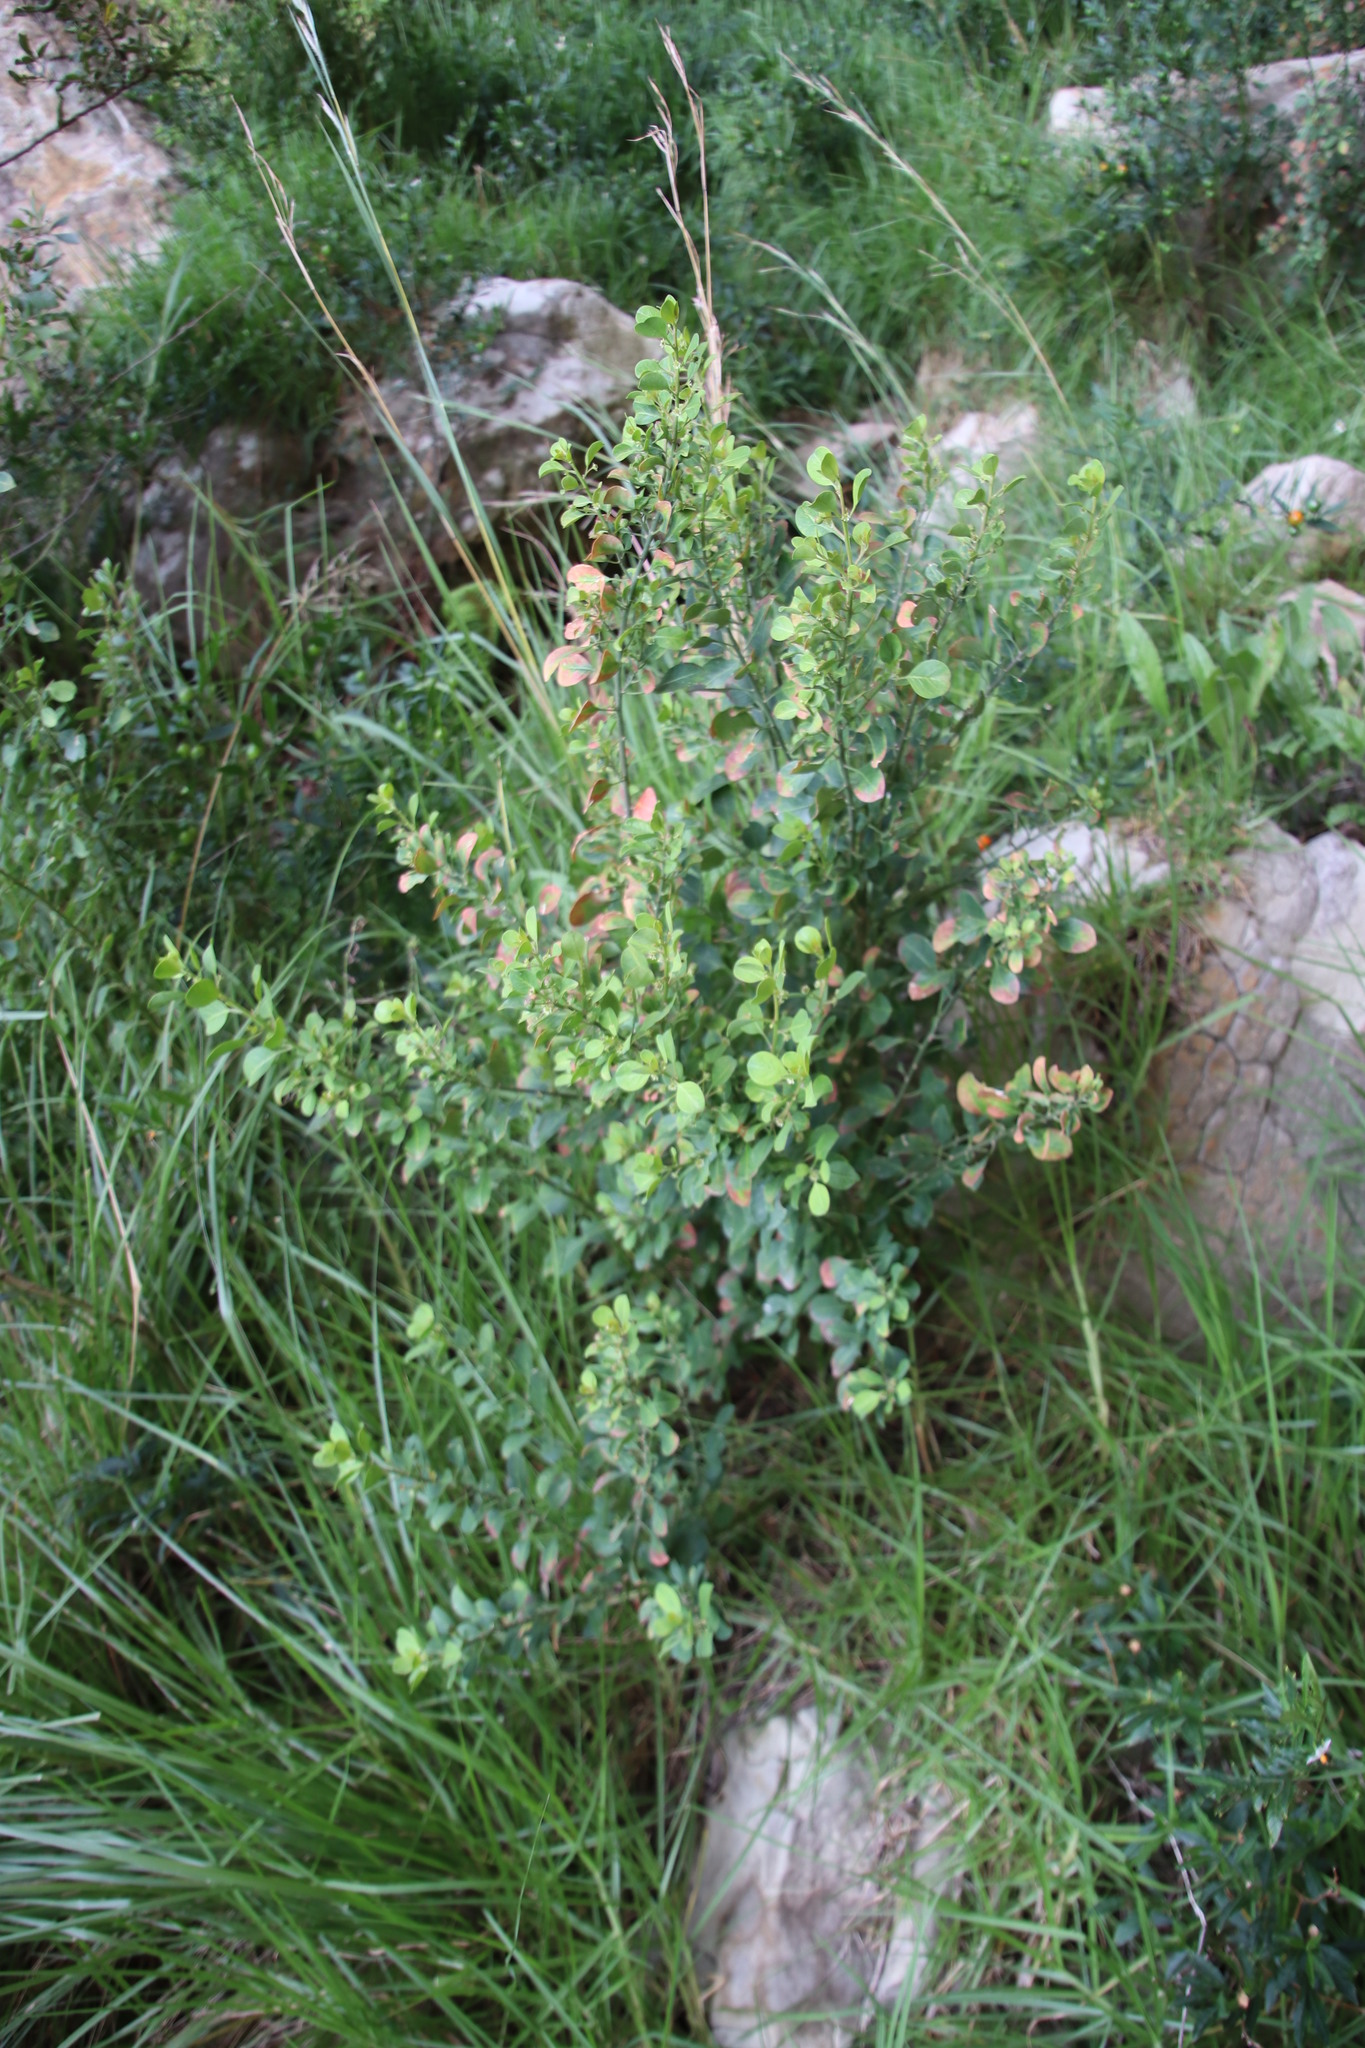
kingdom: Plantae
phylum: Tracheophyta
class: Magnoliopsida
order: Malpighiales
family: Peraceae
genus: Clutia
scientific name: Clutia pulchella
